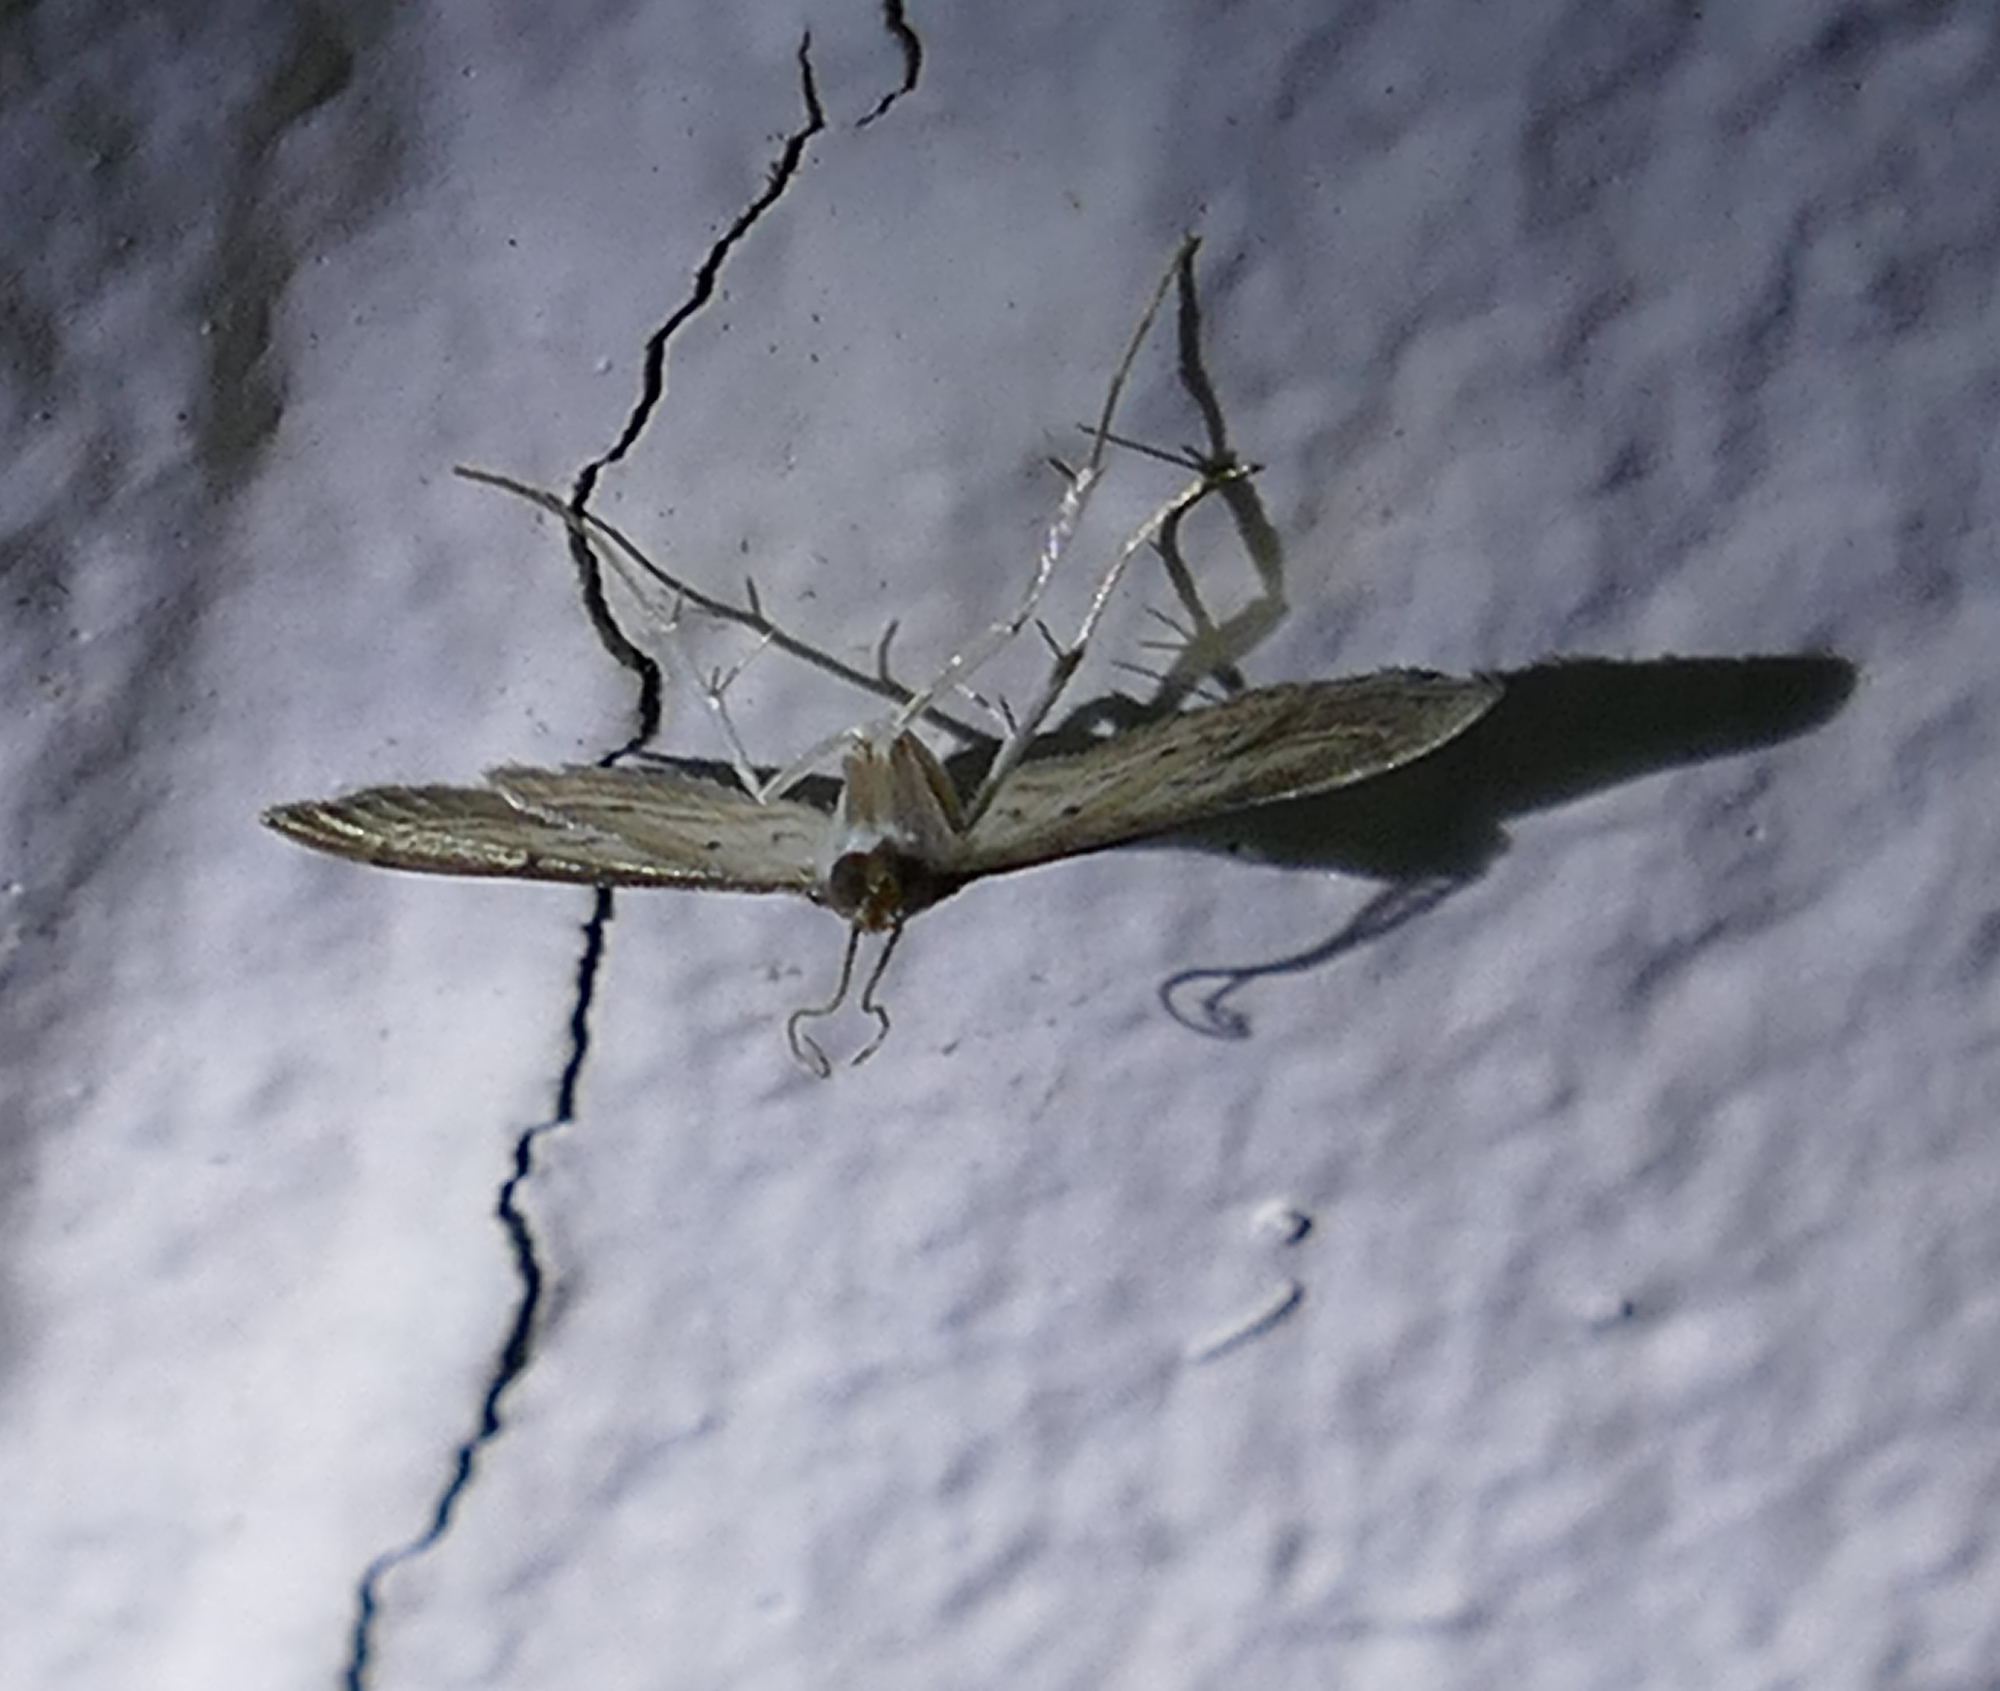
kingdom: Animalia
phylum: Arthropoda
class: Insecta
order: Lepidoptera
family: Crambidae
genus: Cnaphalocrocis
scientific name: Cnaphalocrocis Marasmia trapezalis
